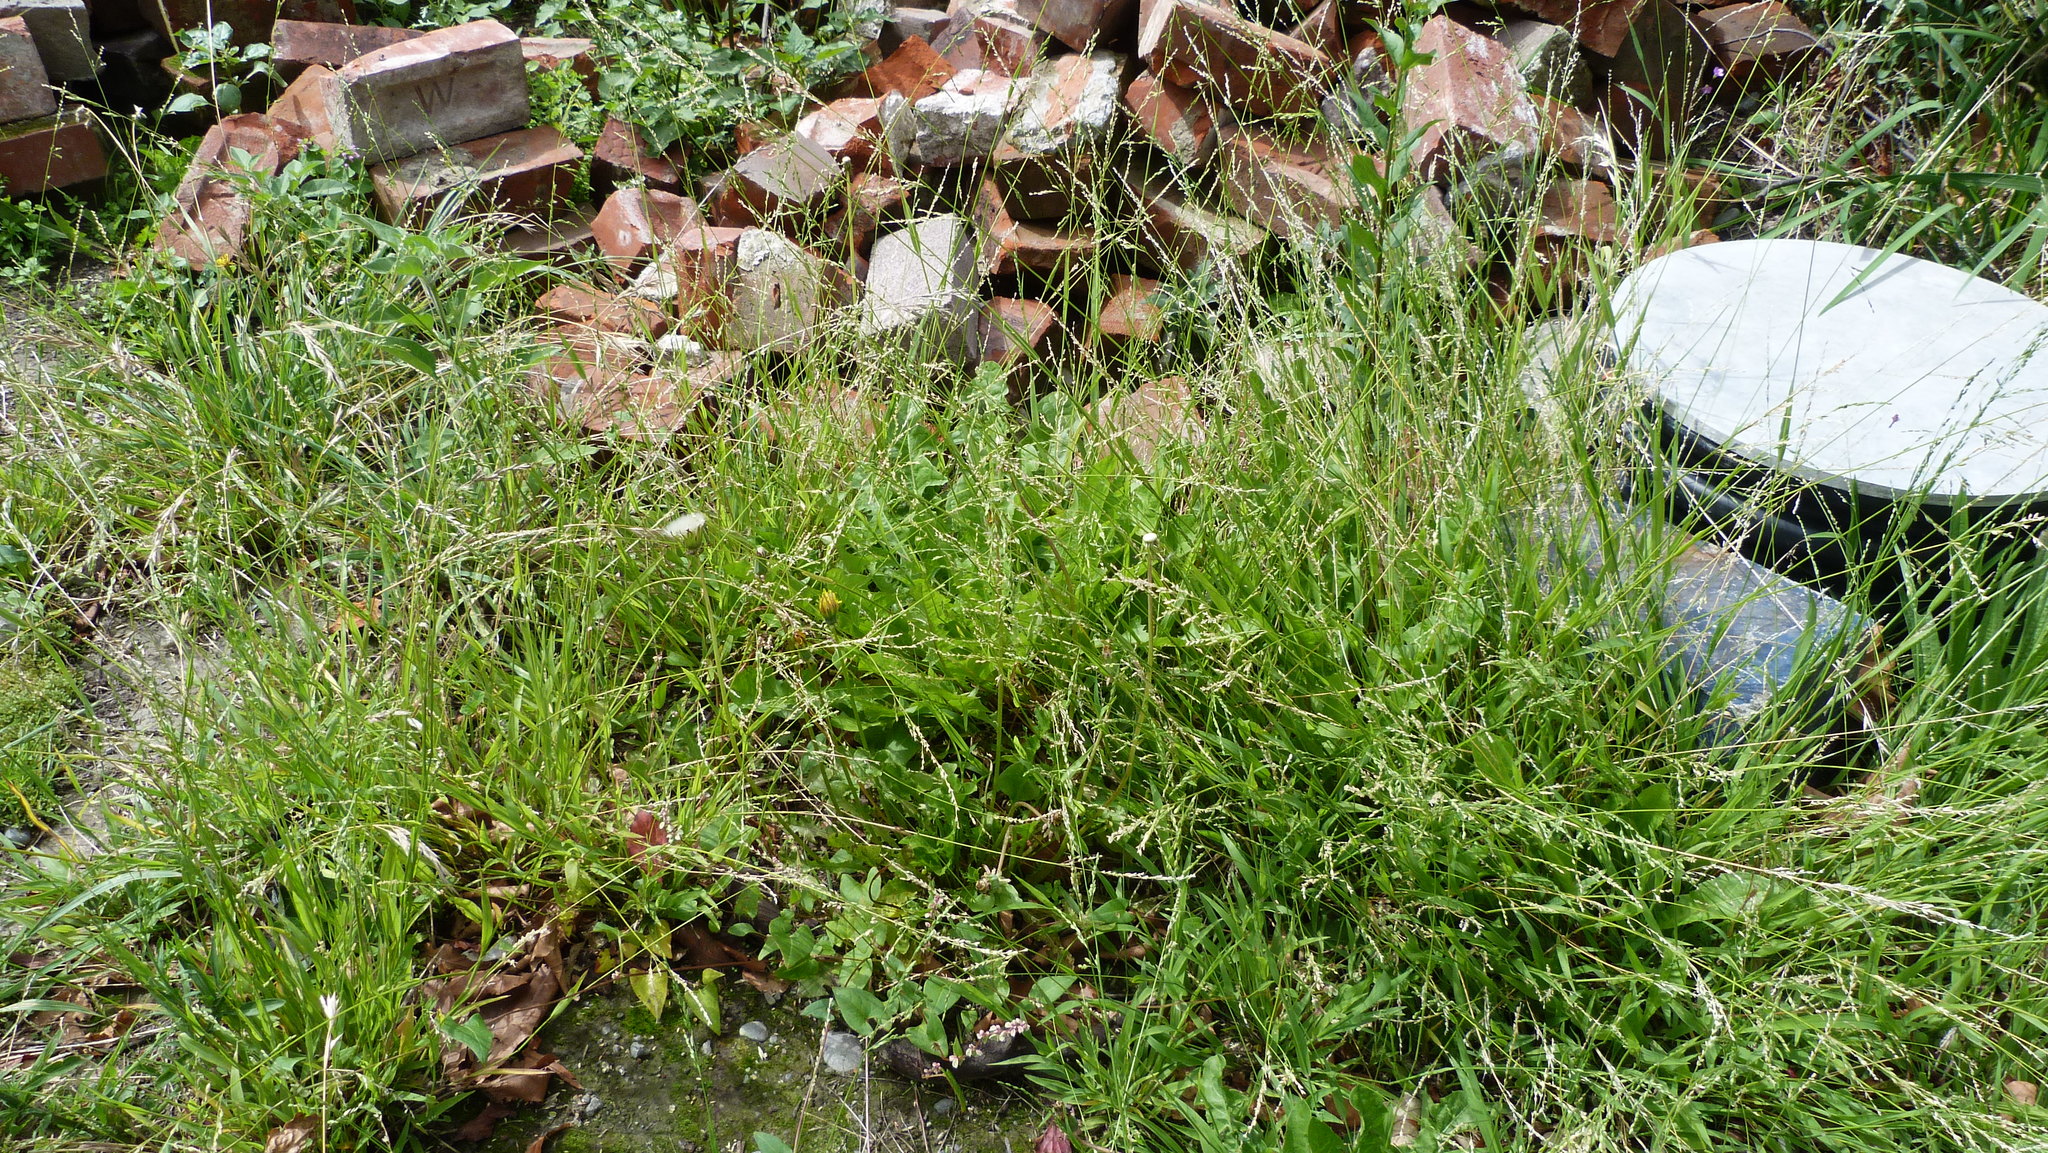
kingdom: Plantae
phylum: Tracheophyta
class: Liliopsida
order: Poales
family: Poaceae
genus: Ehrharta
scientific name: Ehrharta erecta
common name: Panic veldtgrass
